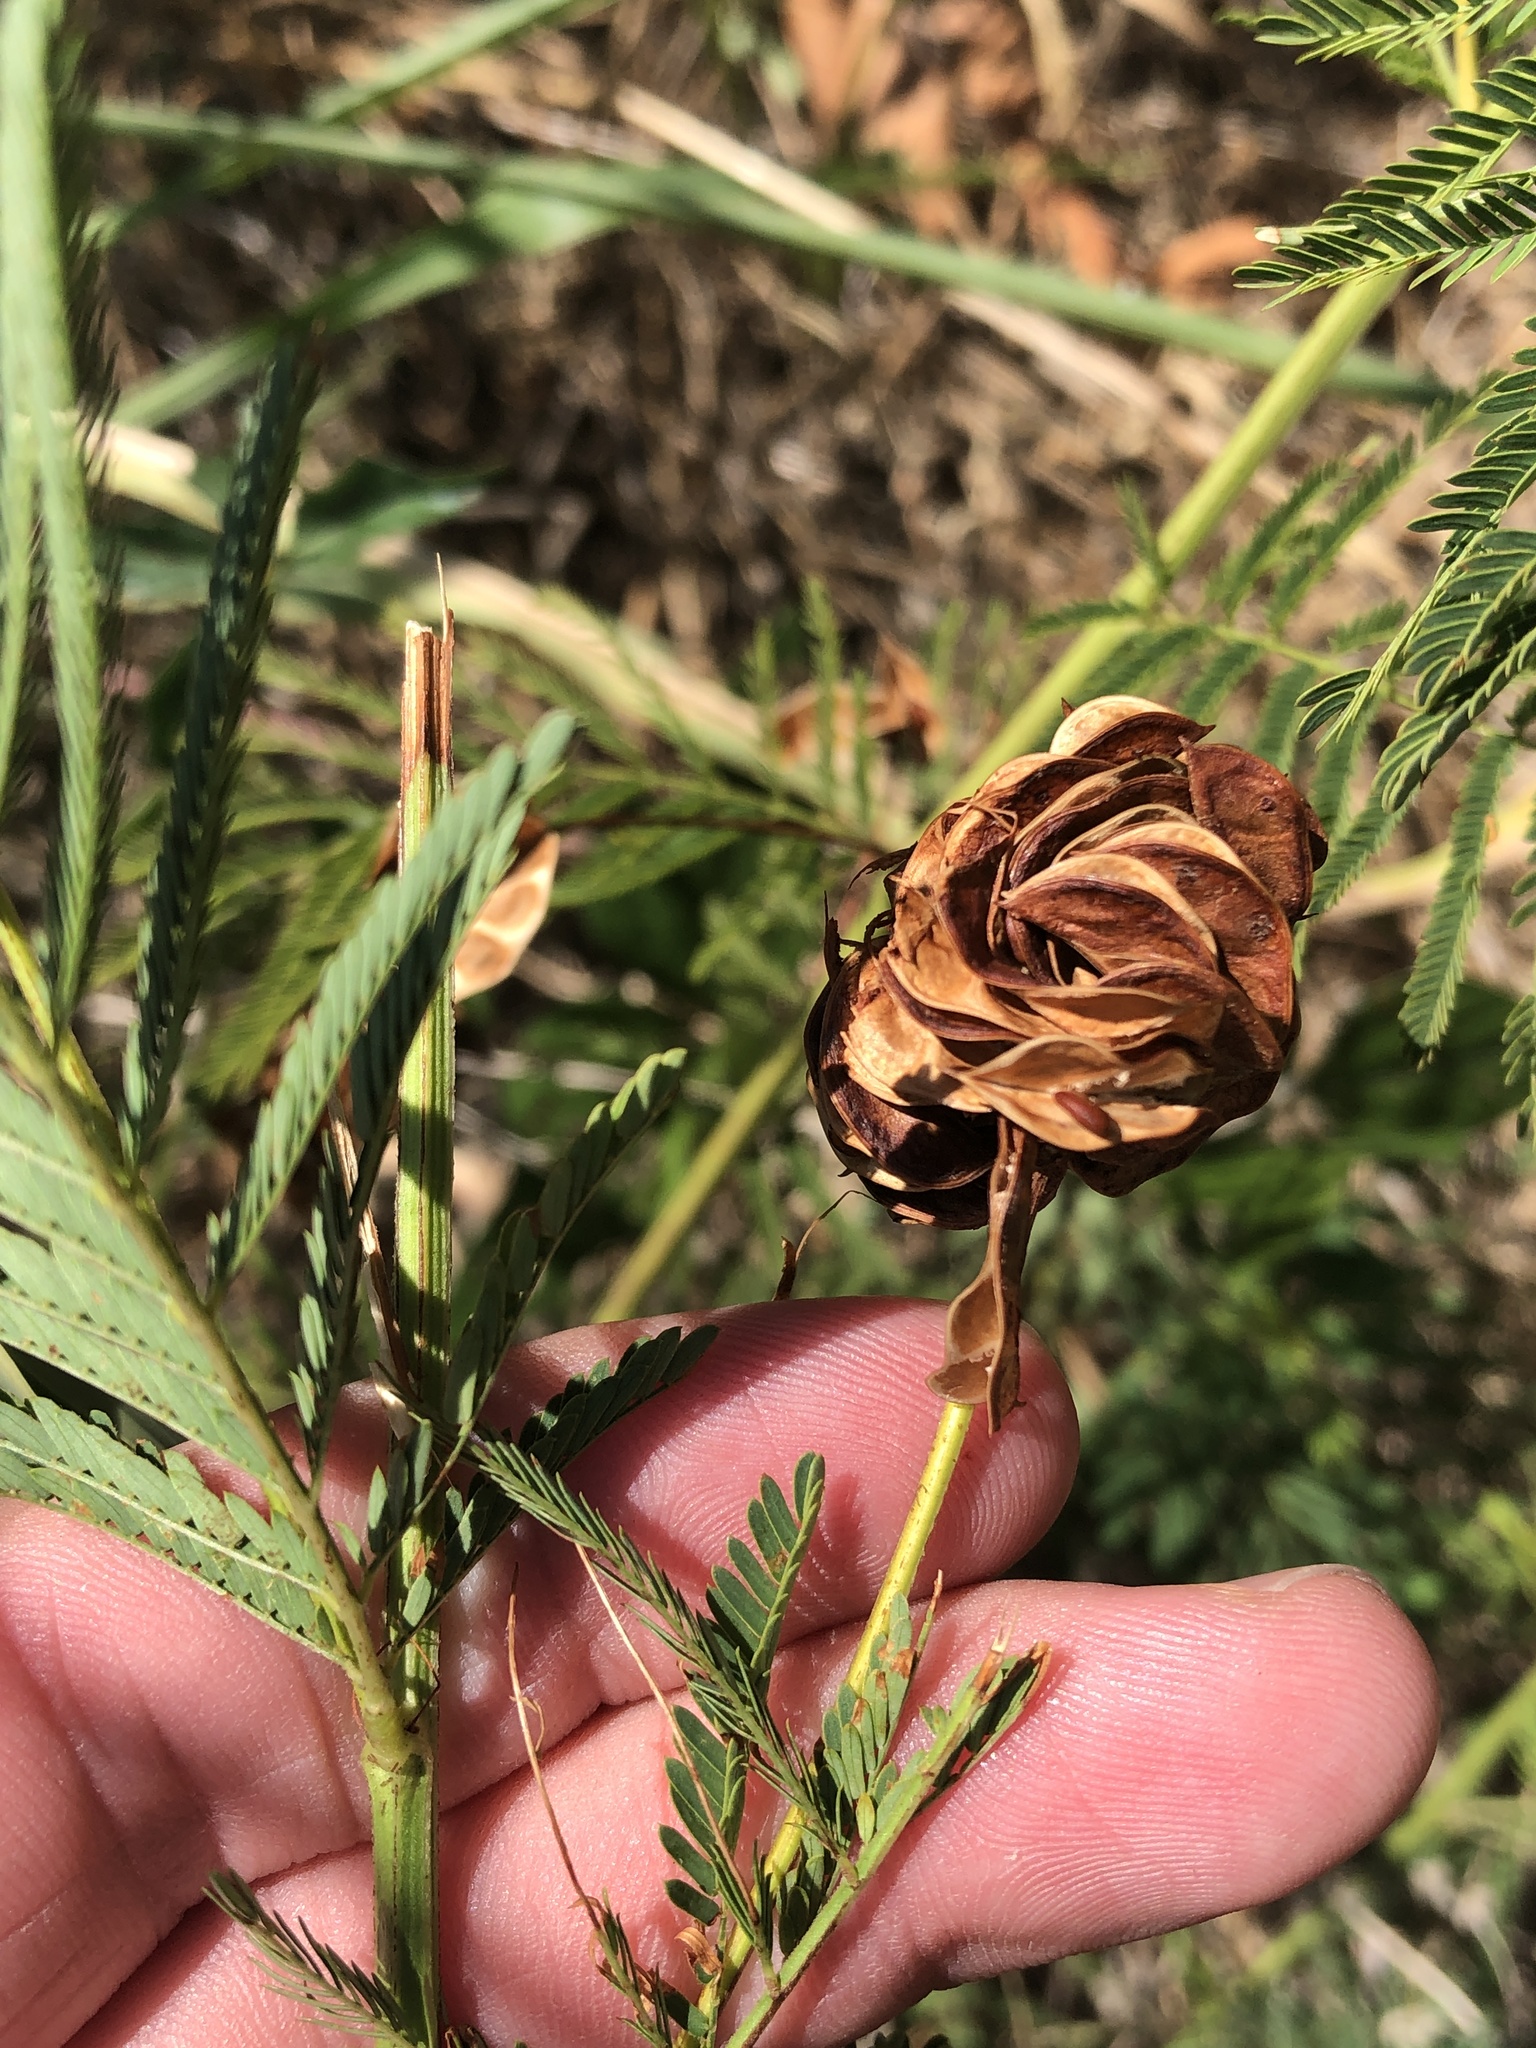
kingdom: Plantae
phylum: Tracheophyta
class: Magnoliopsida
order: Fabales
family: Fabaceae
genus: Desmanthus
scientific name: Desmanthus illinoensis
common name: Illinois bundle-flower
